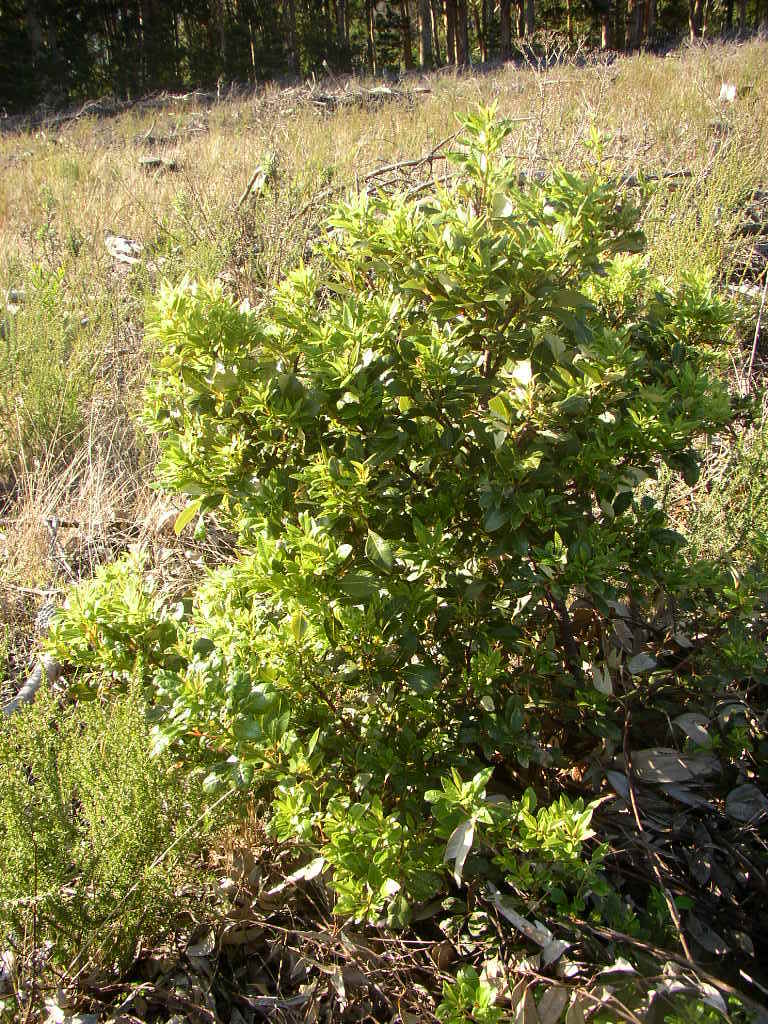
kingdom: Plantae
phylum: Tracheophyta
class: Magnoliopsida
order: Sapindales
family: Anacardiaceae
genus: Searsia
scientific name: Searsia tomentosa
